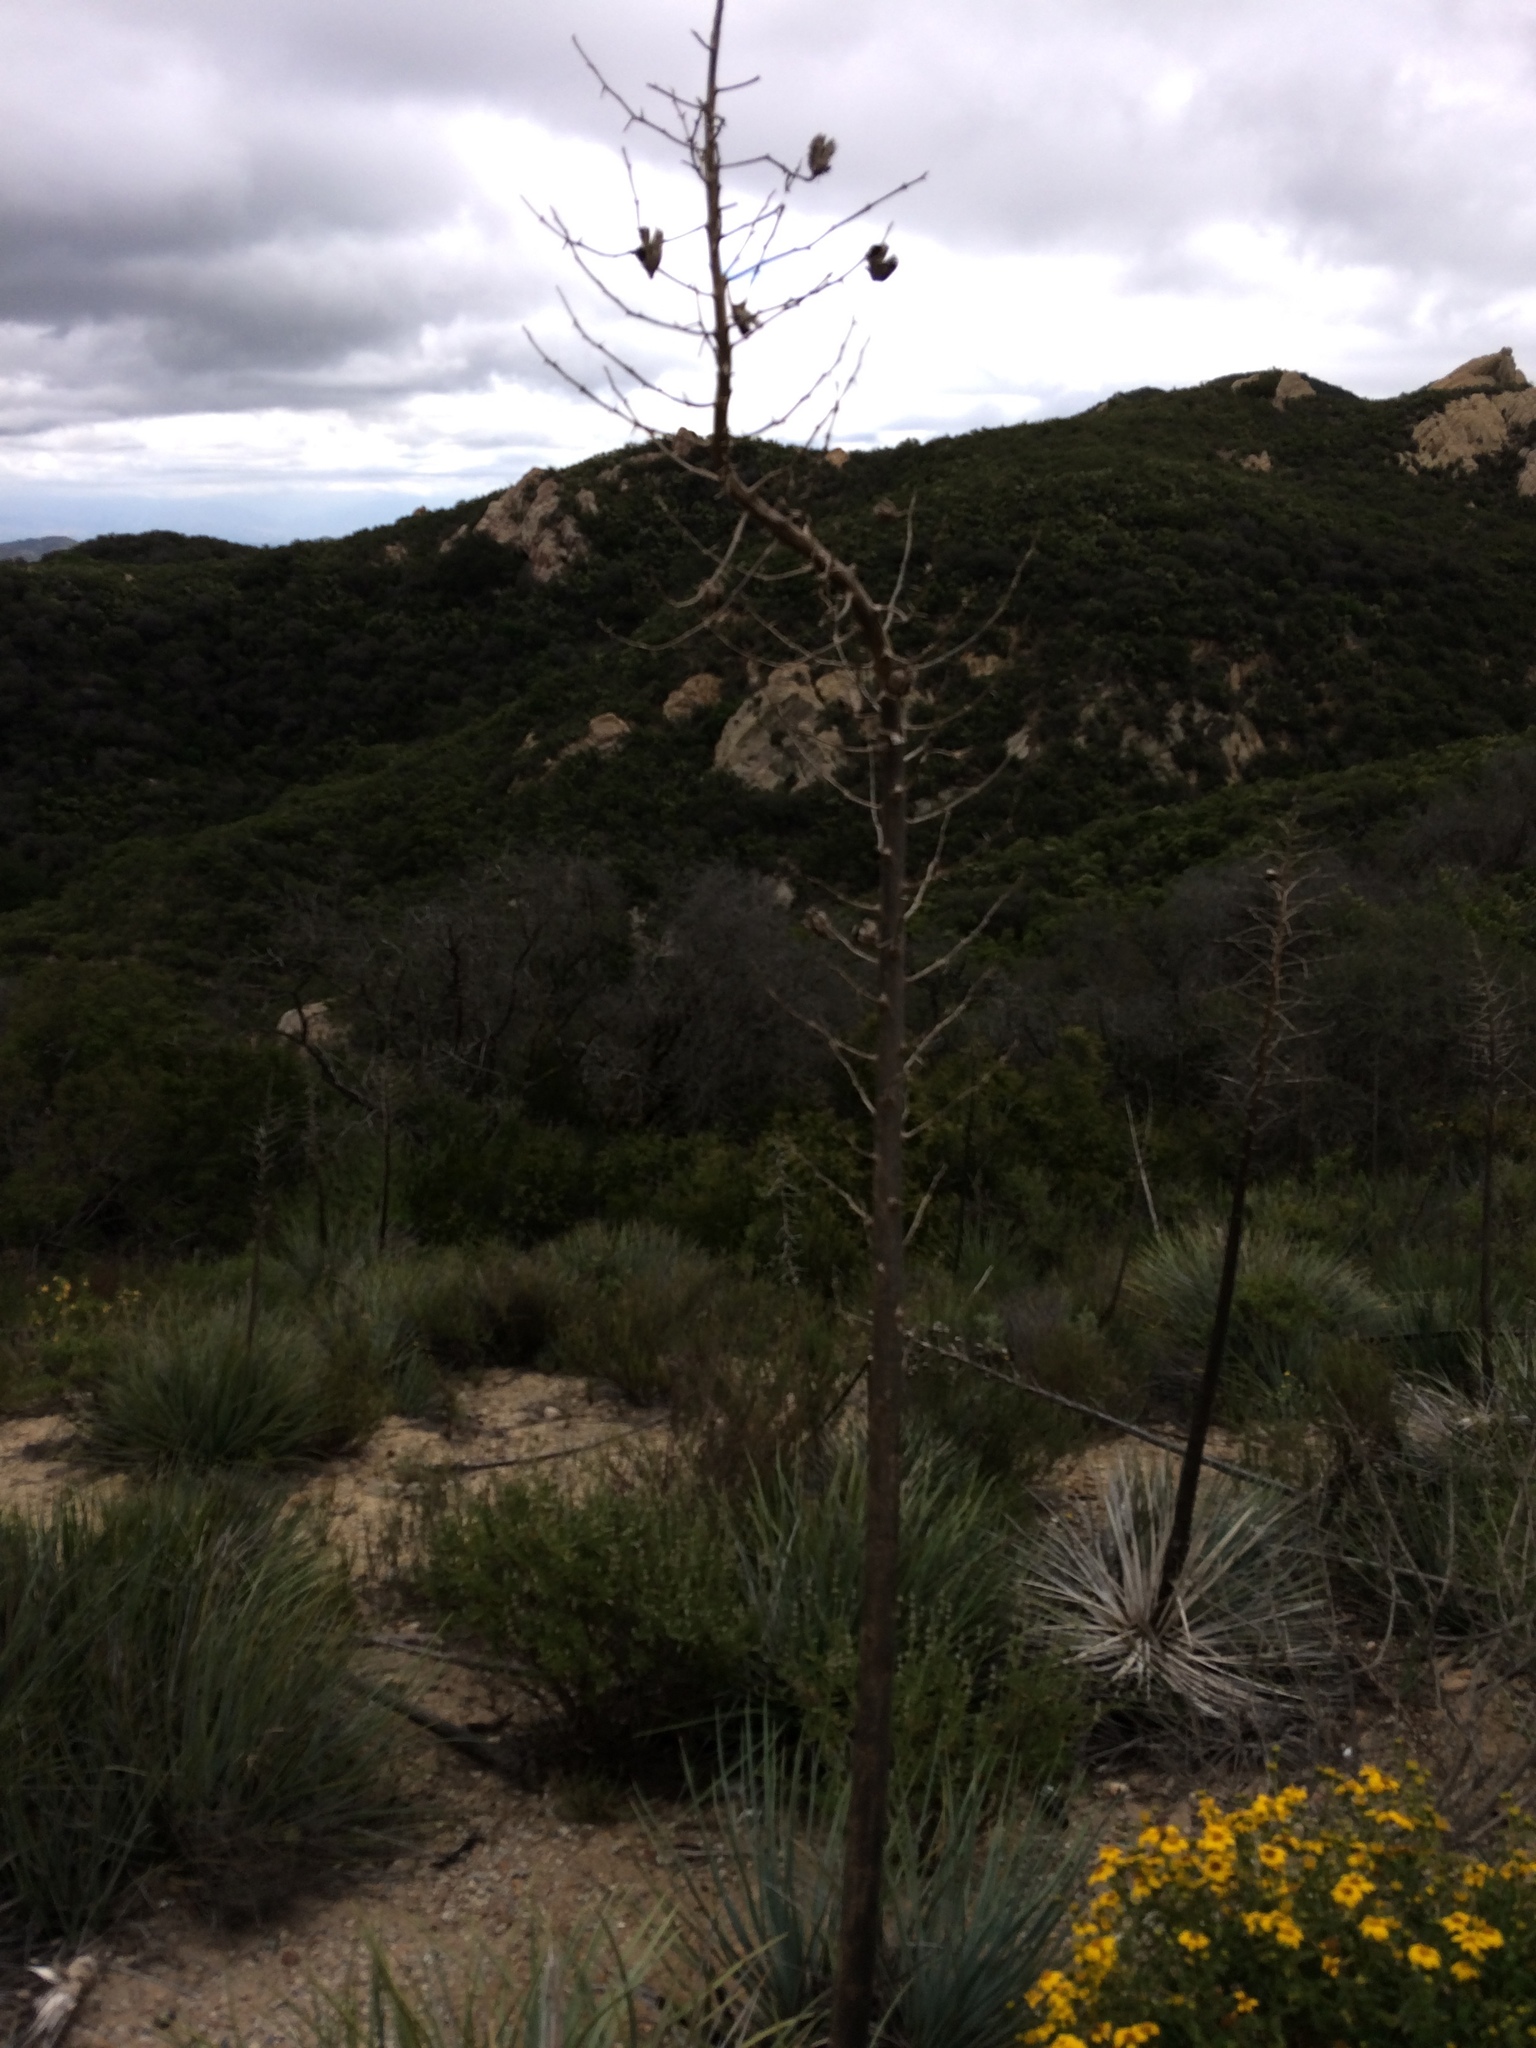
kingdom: Plantae
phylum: Tracheophyta
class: Liliopsida
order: Asparagales
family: Asparagaceae
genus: Hesperoyucca
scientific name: Hesperoyucca whipplei
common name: Our lord's-candle
